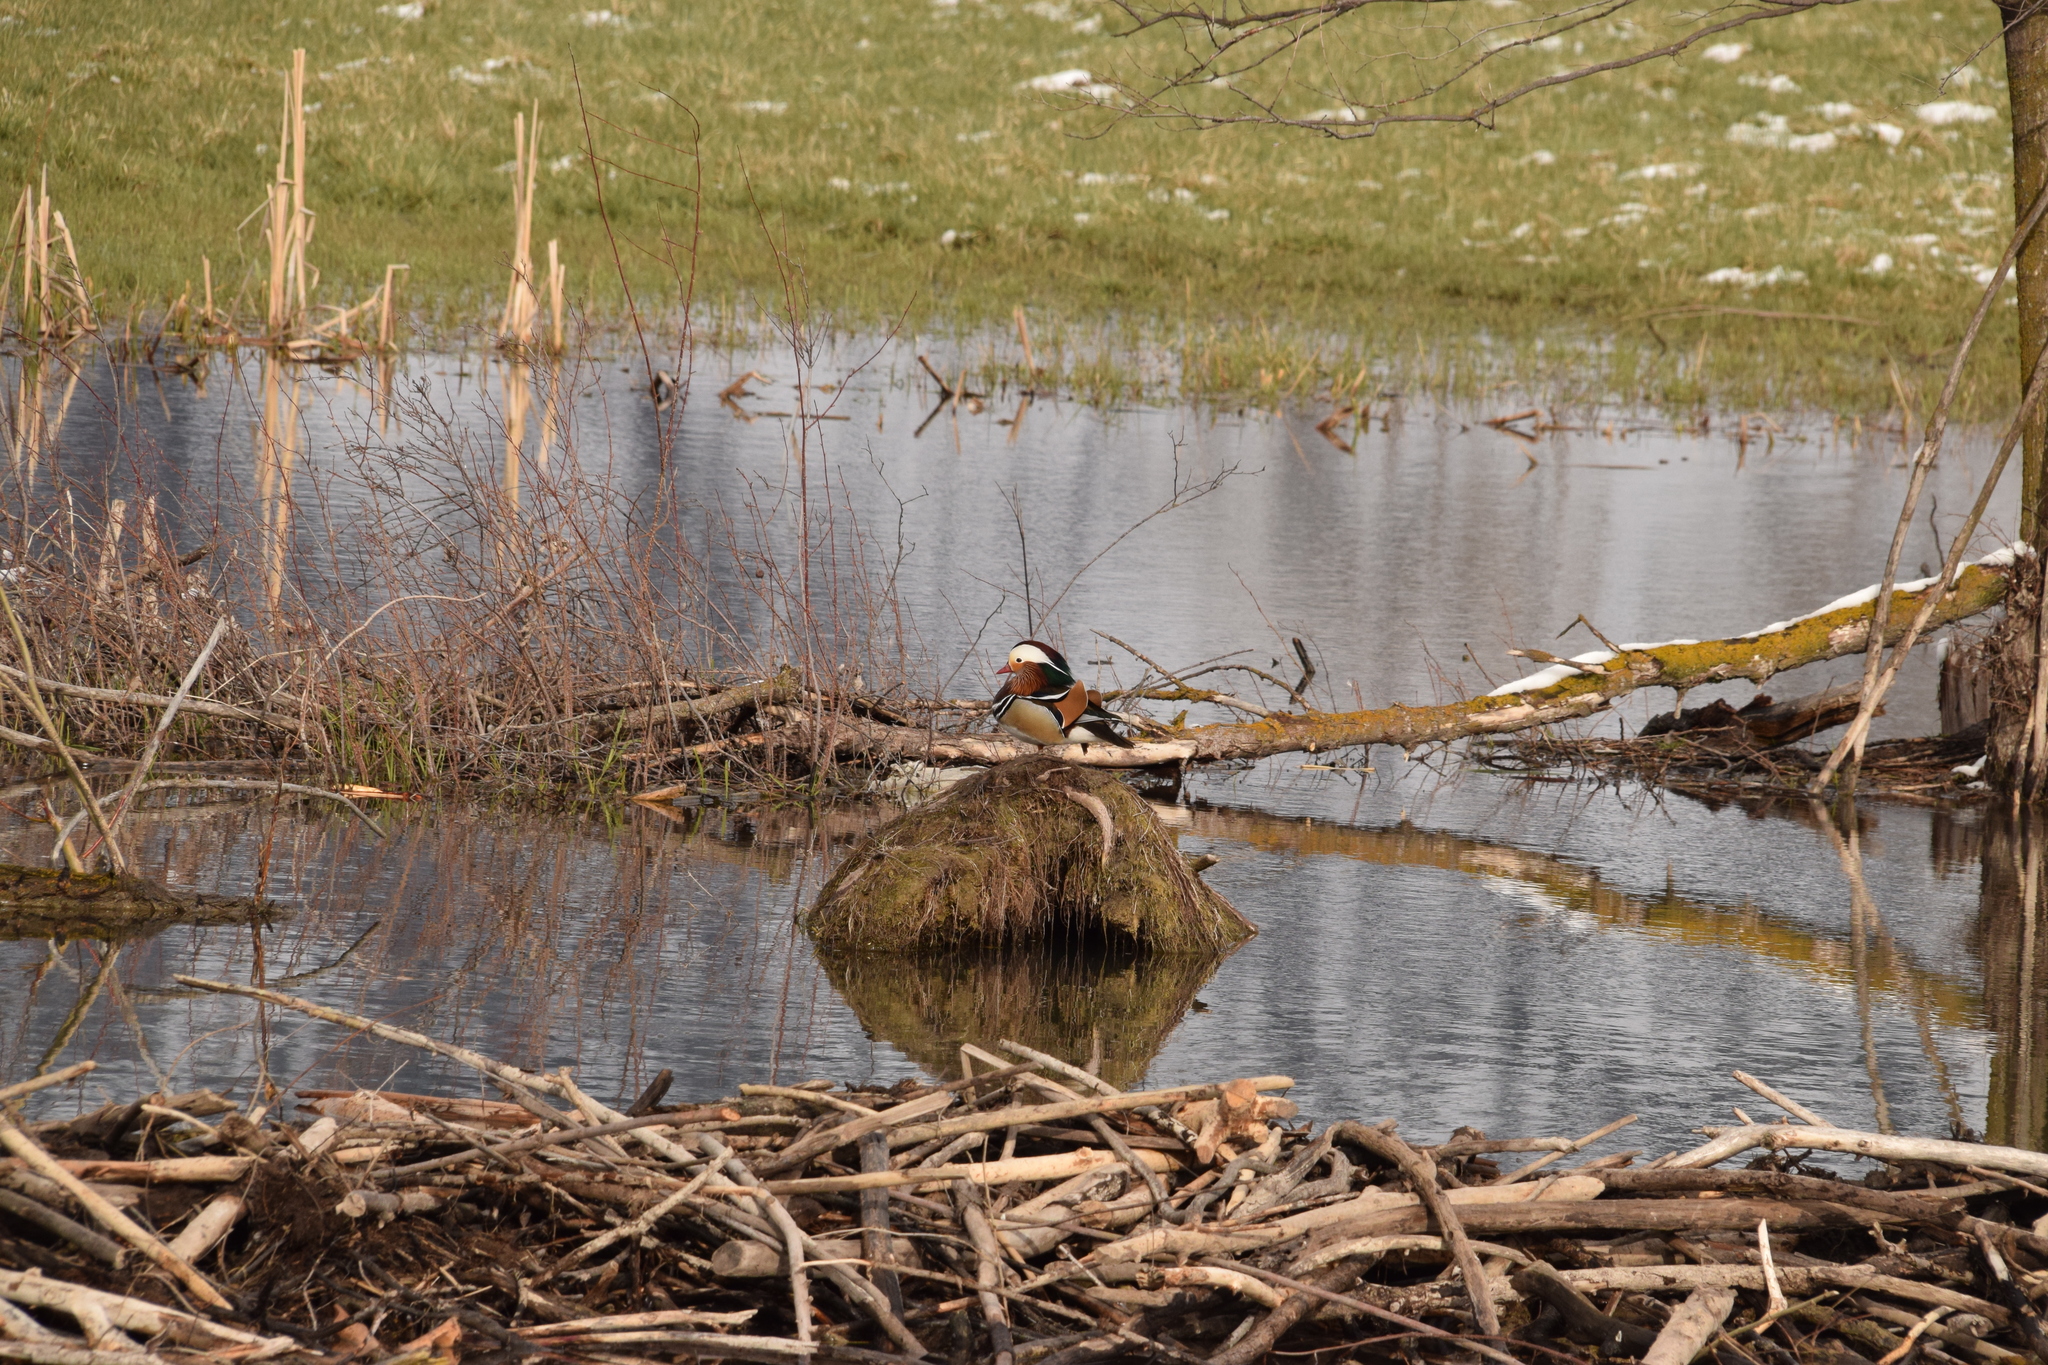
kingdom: Animalia
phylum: Chordata
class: Aves
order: Anseriformes
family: Anatidae
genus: Aix
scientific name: Aix galericulata
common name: Mandarin duck
